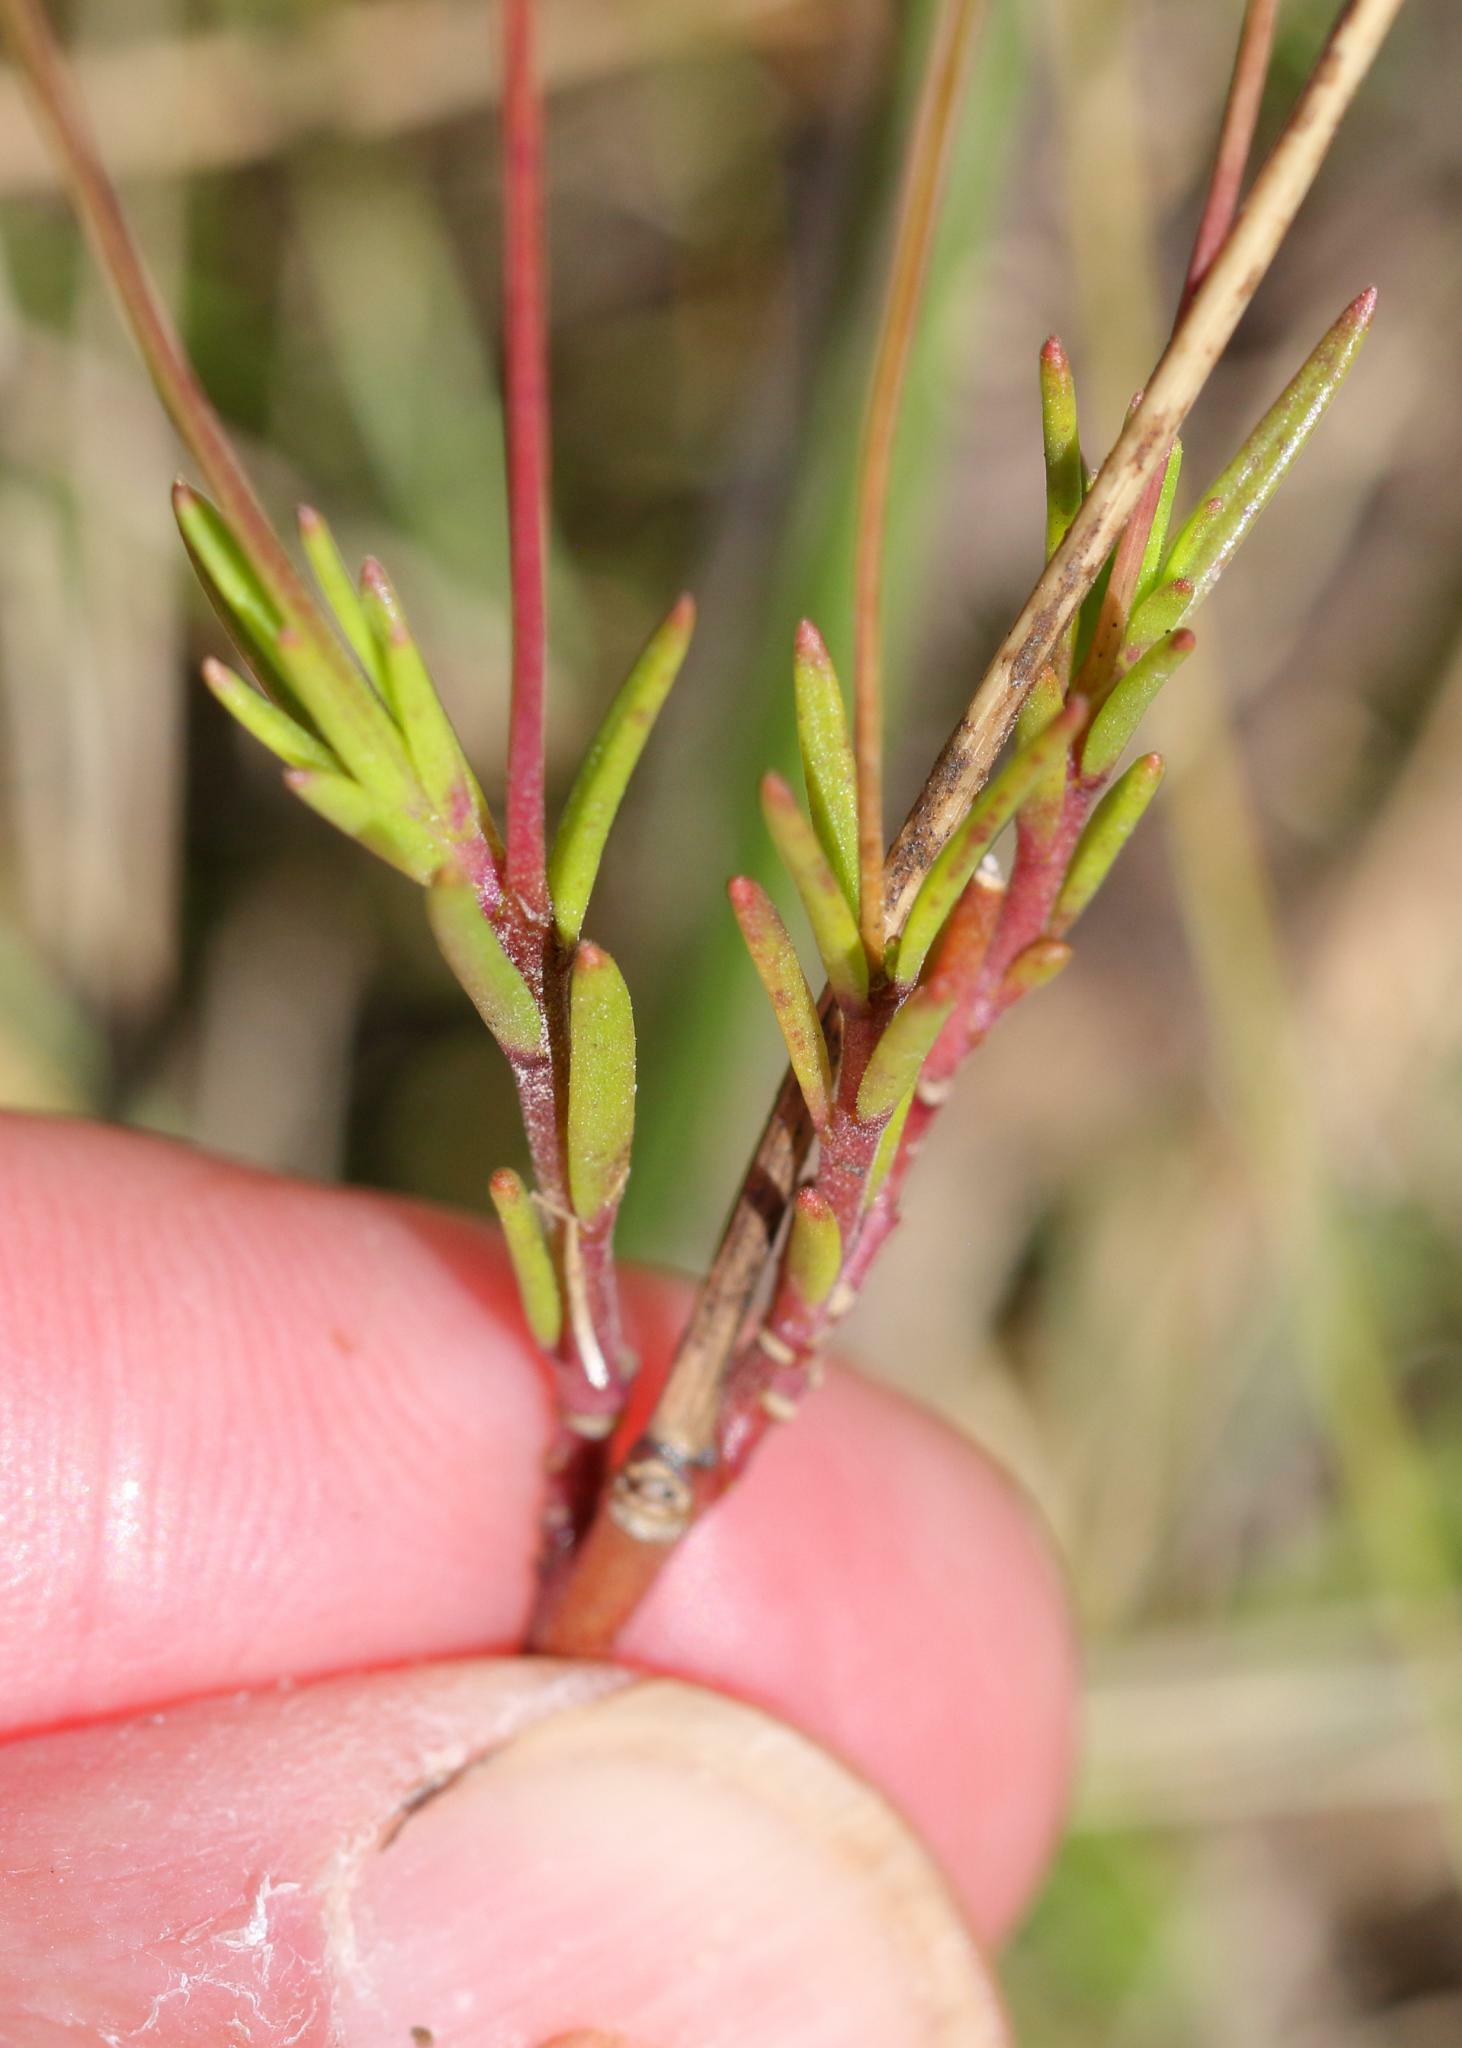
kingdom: Plantae
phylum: Tracheophyta
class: Magnoliopsida
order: Brassicales
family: Brassicaceae
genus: Heliophila
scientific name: Heliophila subulata
